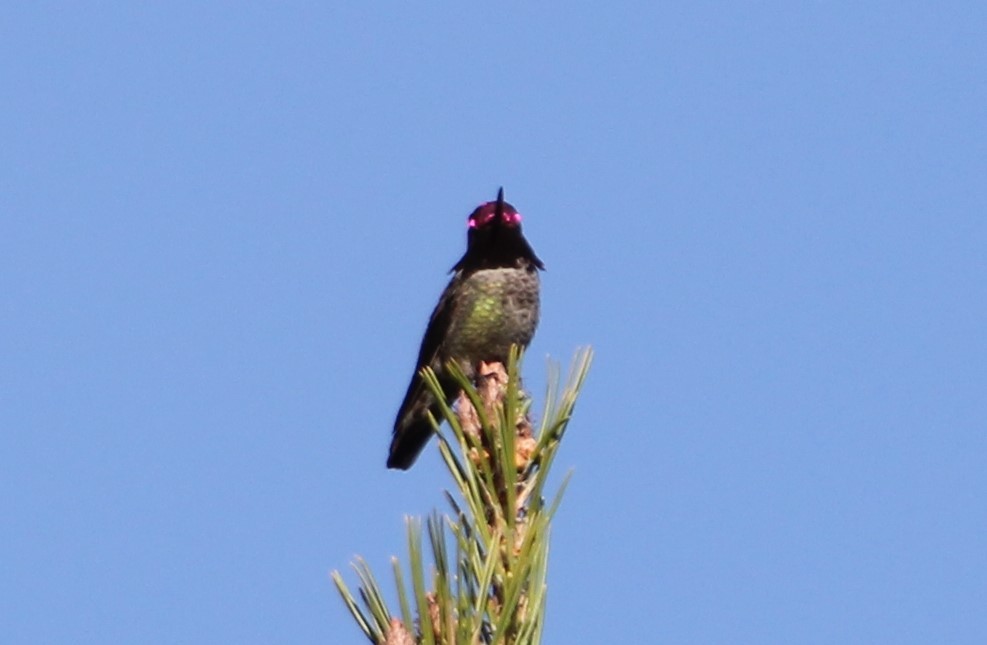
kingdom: Animalia
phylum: Chordata
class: Aves
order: Apodiformes
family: Trochilidae
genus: Calypte
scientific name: Calypte anna
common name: Anna's hummingbird
